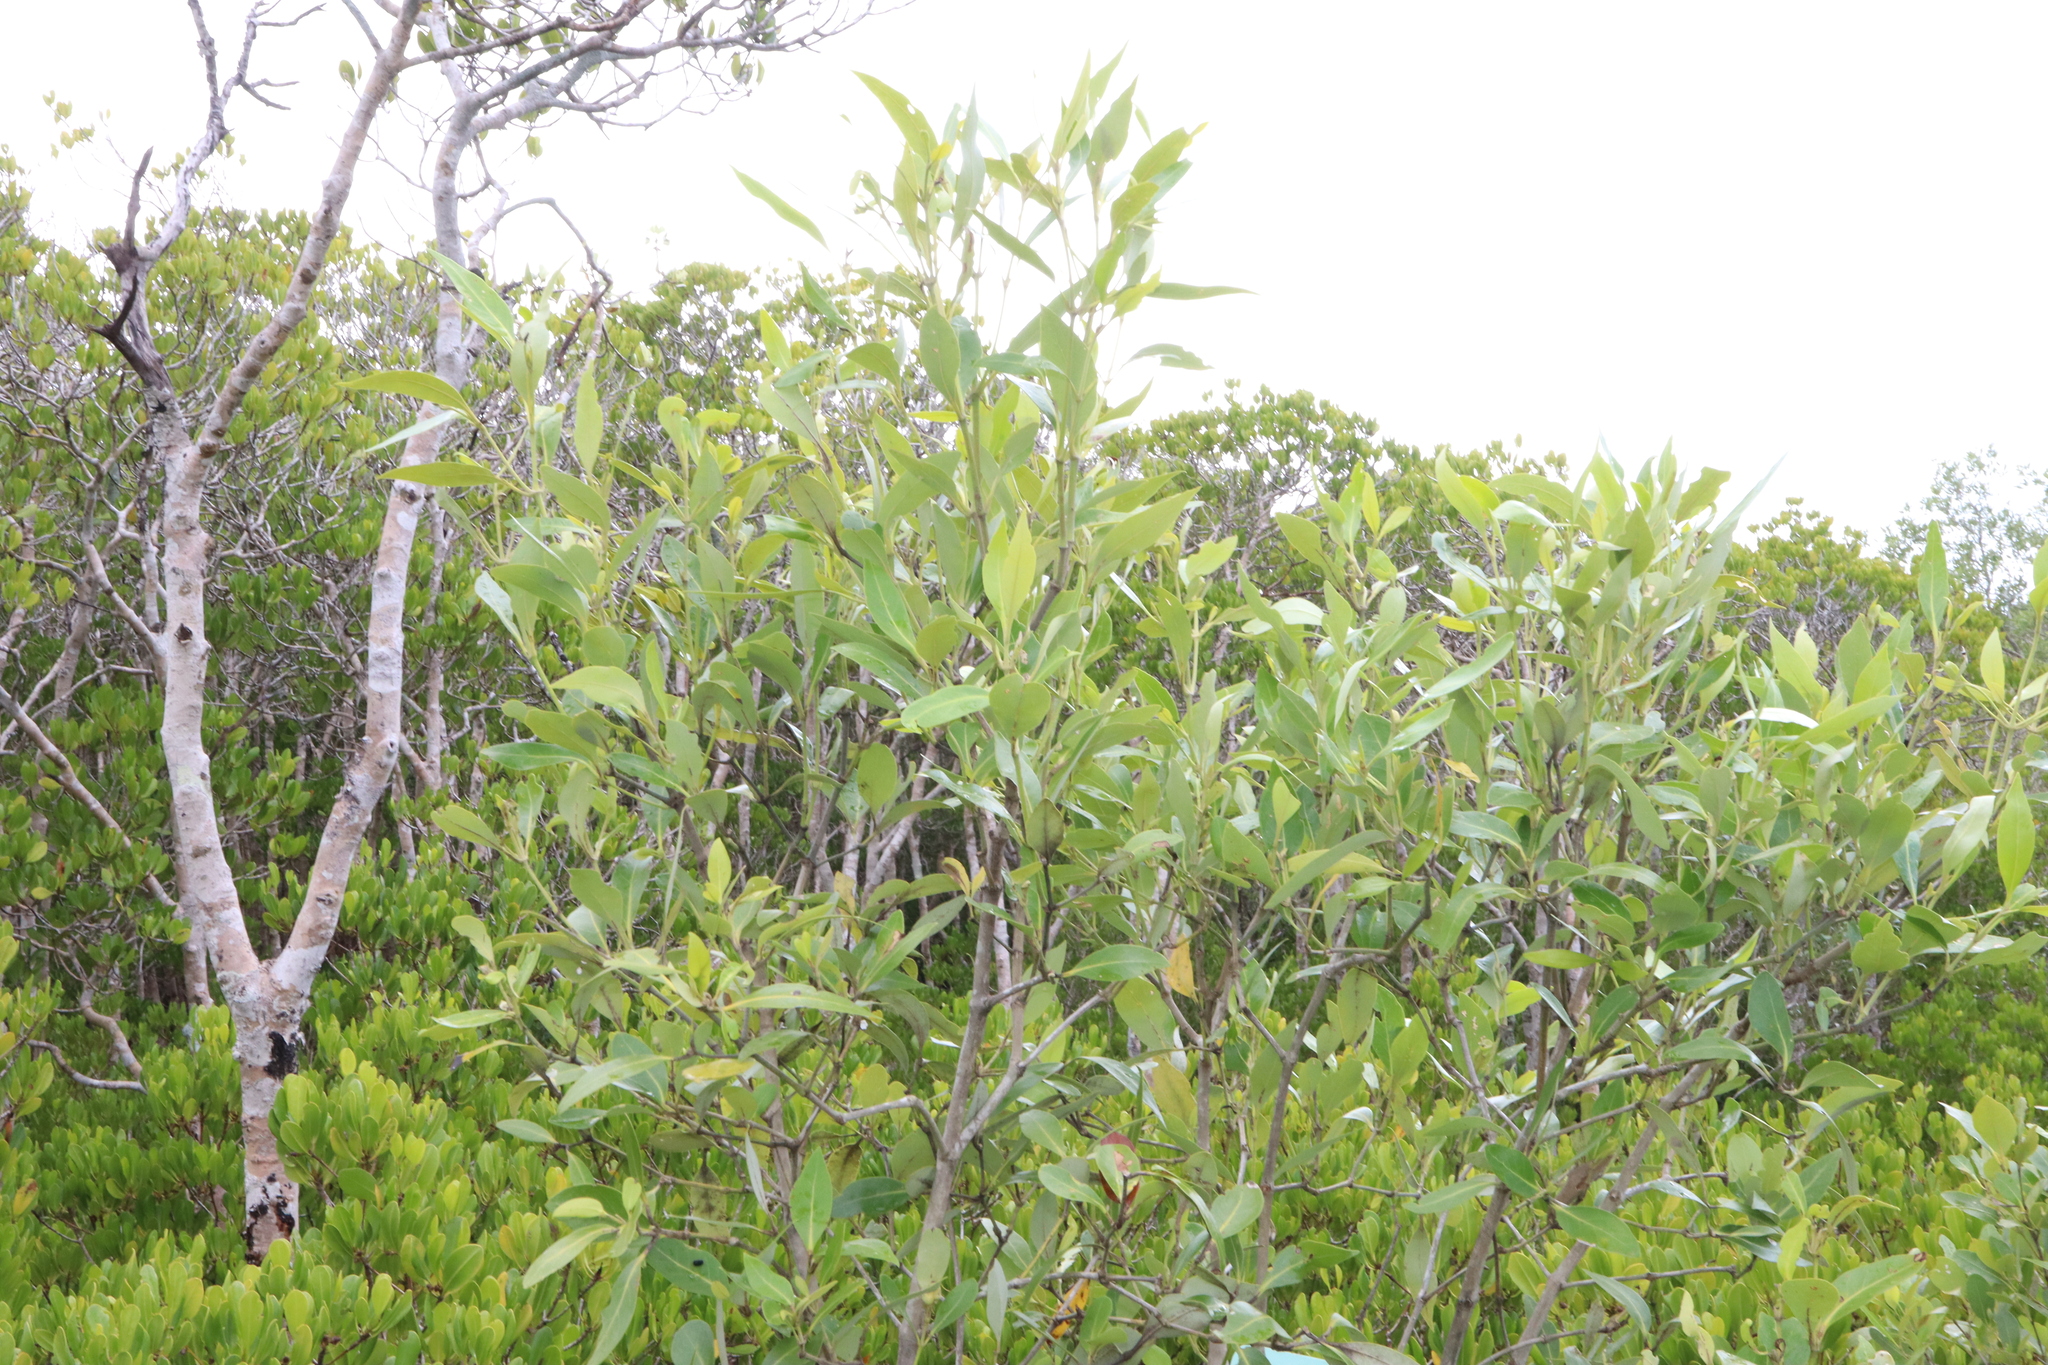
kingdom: Plantae
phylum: Tracheophyta
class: Magnoliopsida
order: Lamiales
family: Acanthaceae
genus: Avicennia
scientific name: Avicennia marina
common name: Gray mangrove
